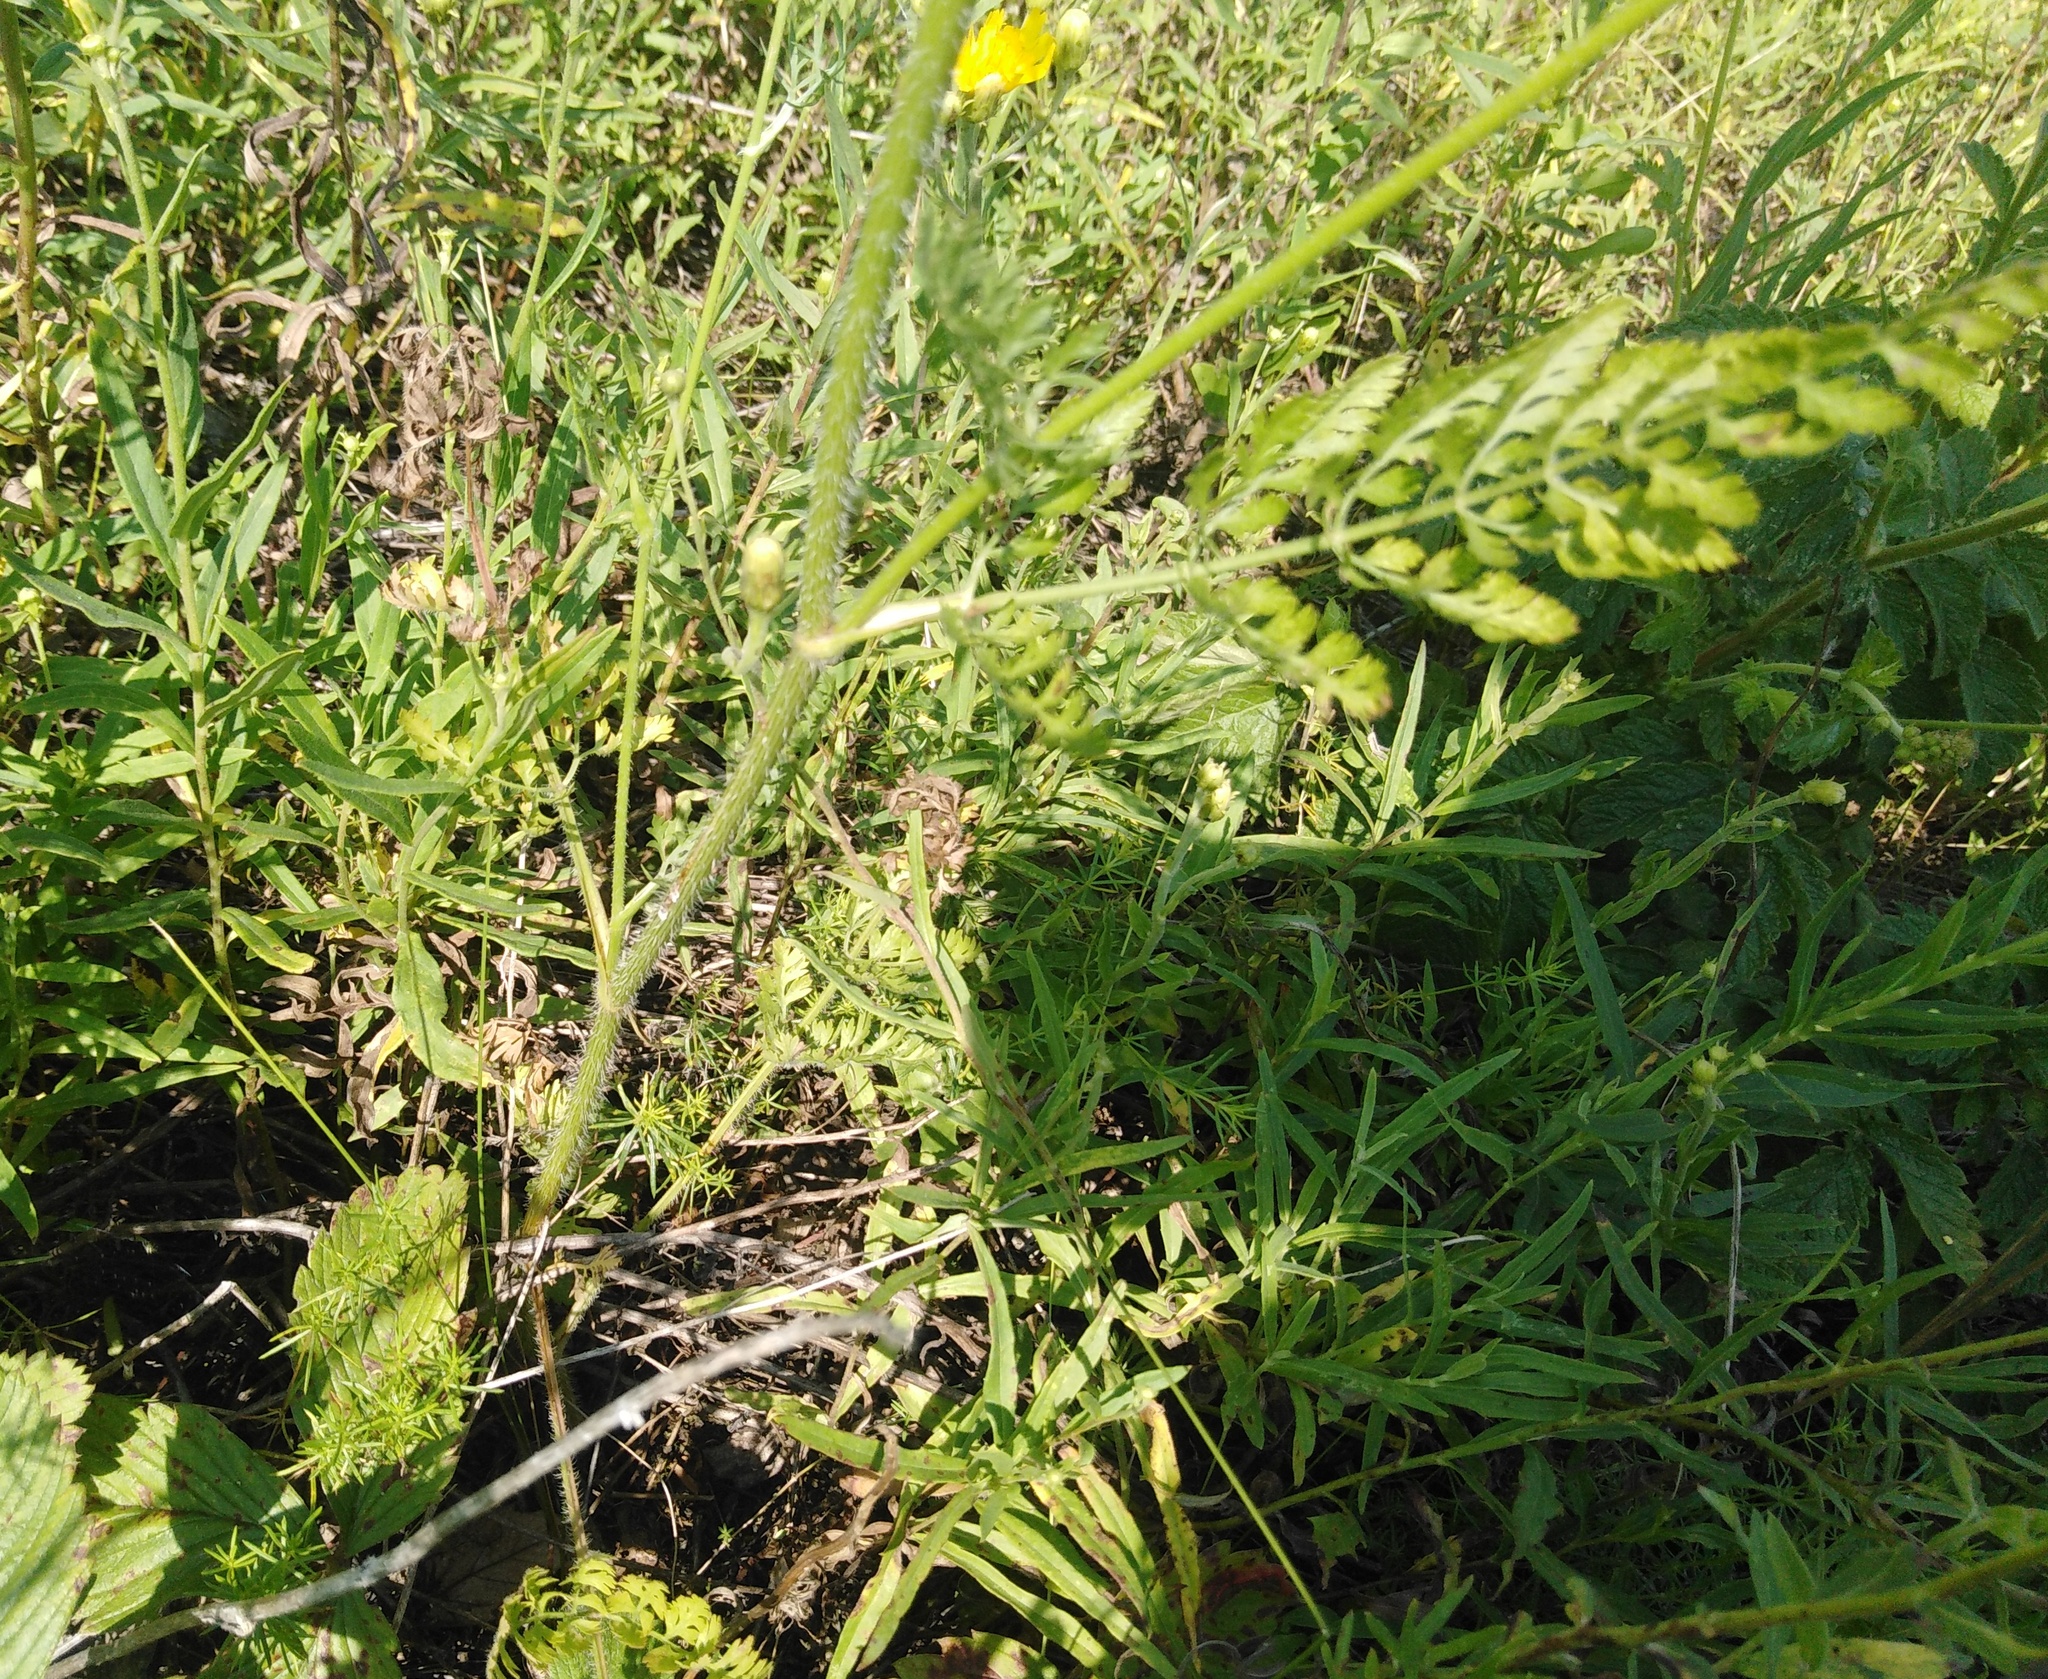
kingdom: Plantae
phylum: Tracheophyta
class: Magnoliopsida
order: Apiales
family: Apiaceae
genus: Daucus
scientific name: Daucus carota
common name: Wild carrot
